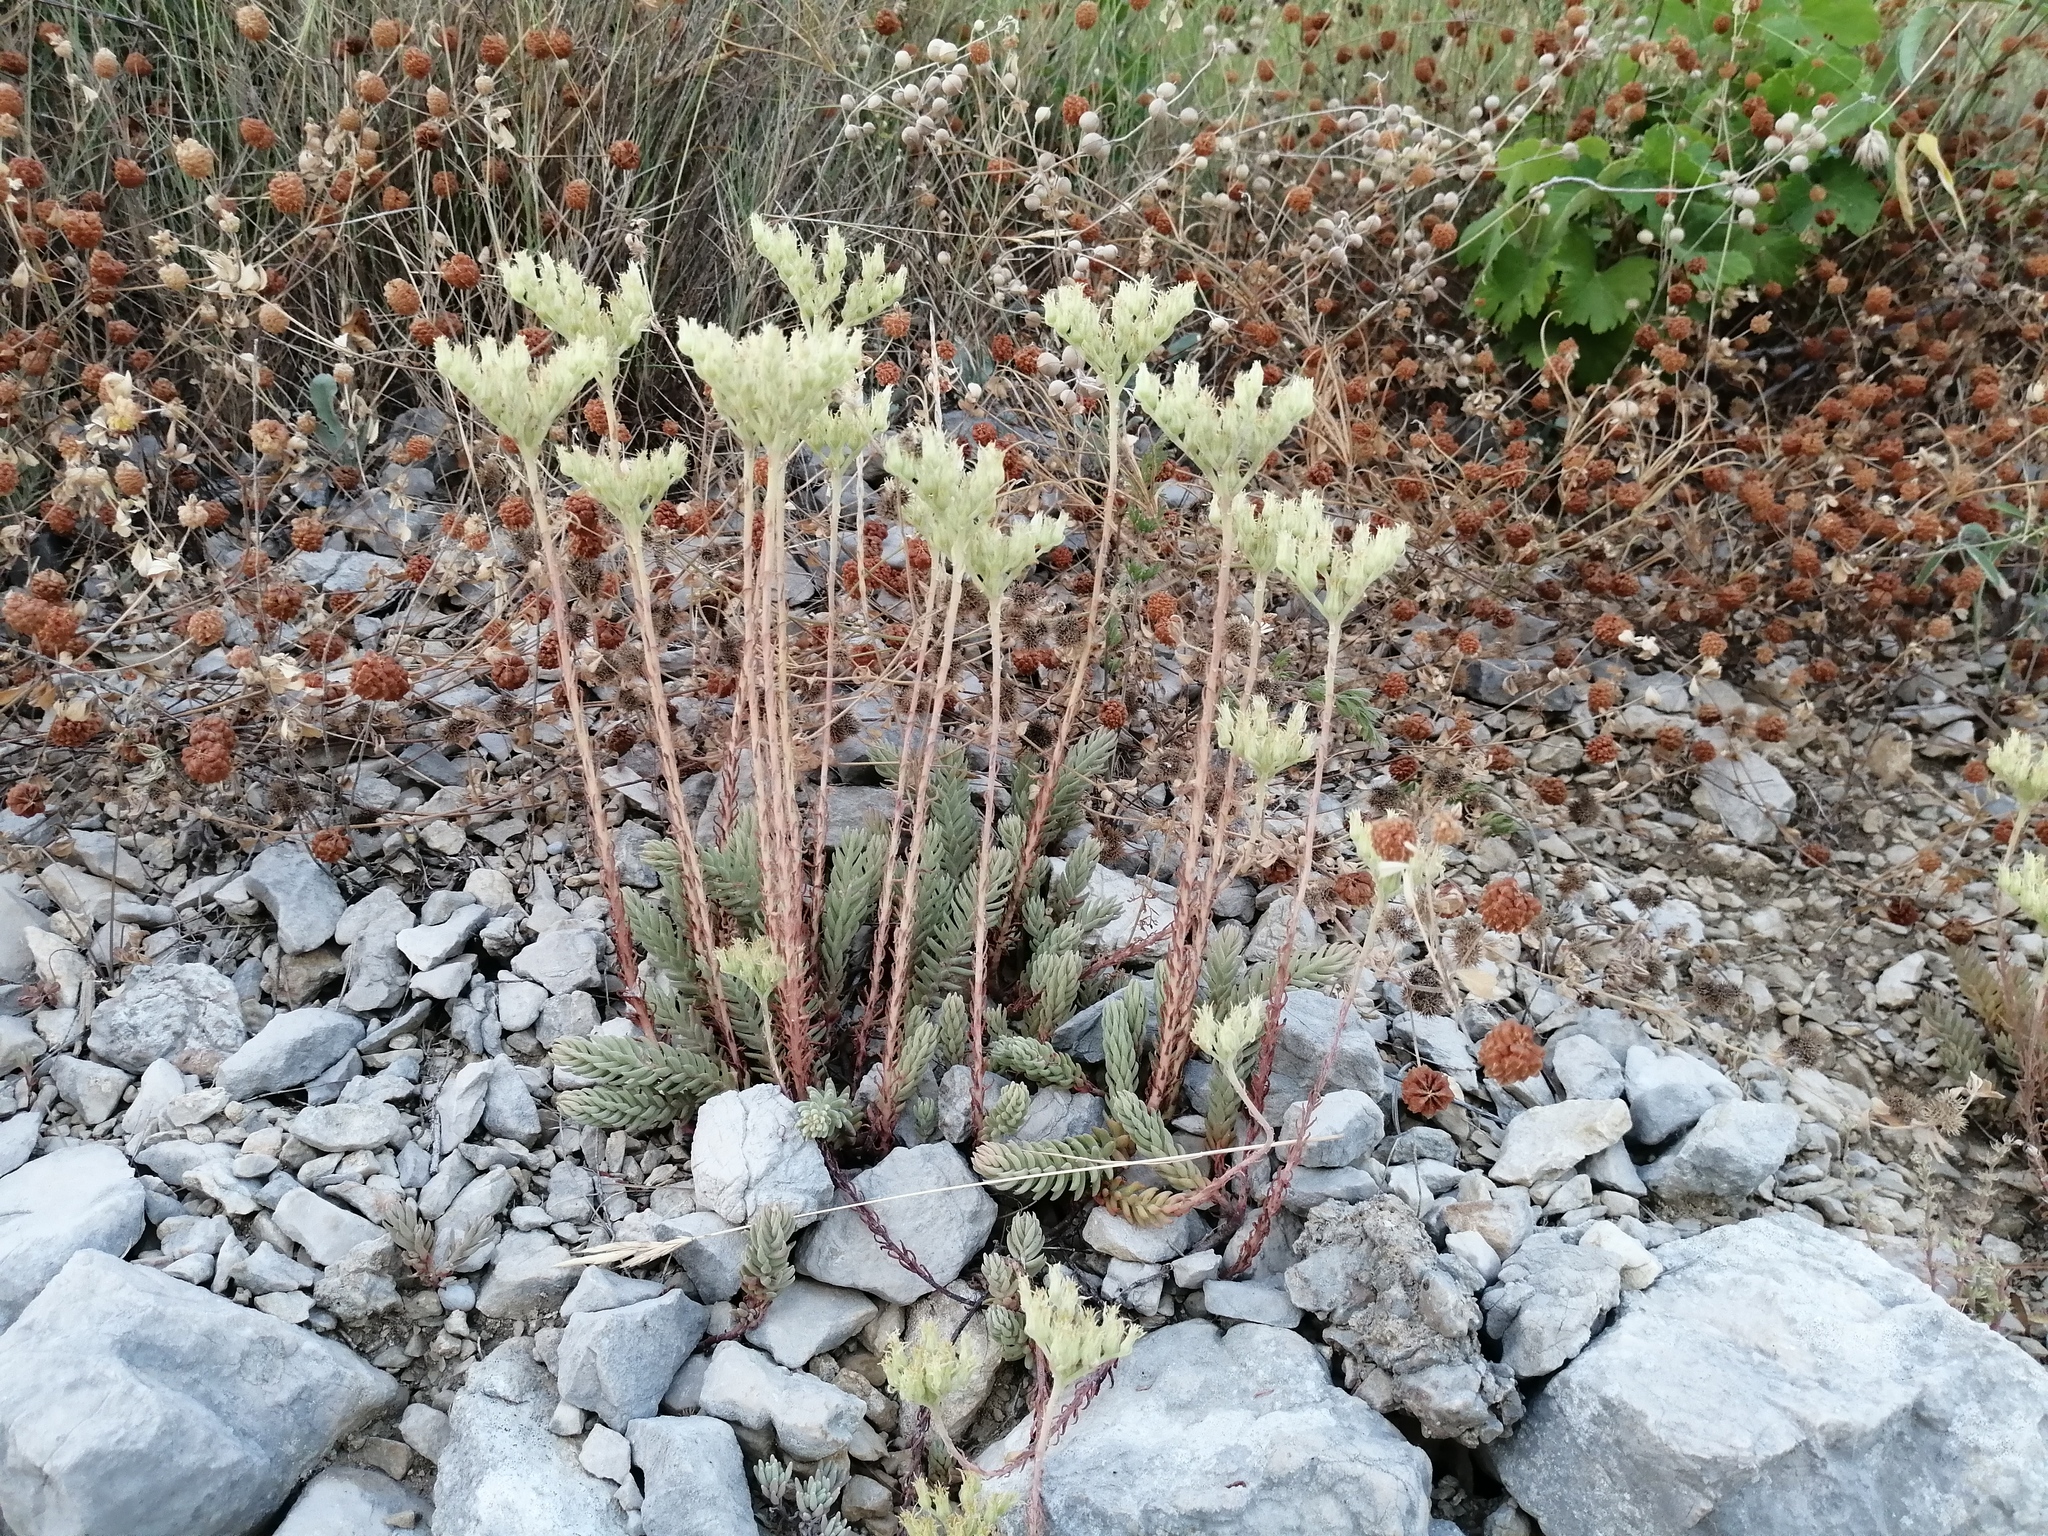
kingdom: Plantae
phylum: Tracheophyta
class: Magnoliopsida
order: Saxifragales
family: Crassulaceae
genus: Petrosedum
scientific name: Petrosedum ochroleucum
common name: European stonecrop
